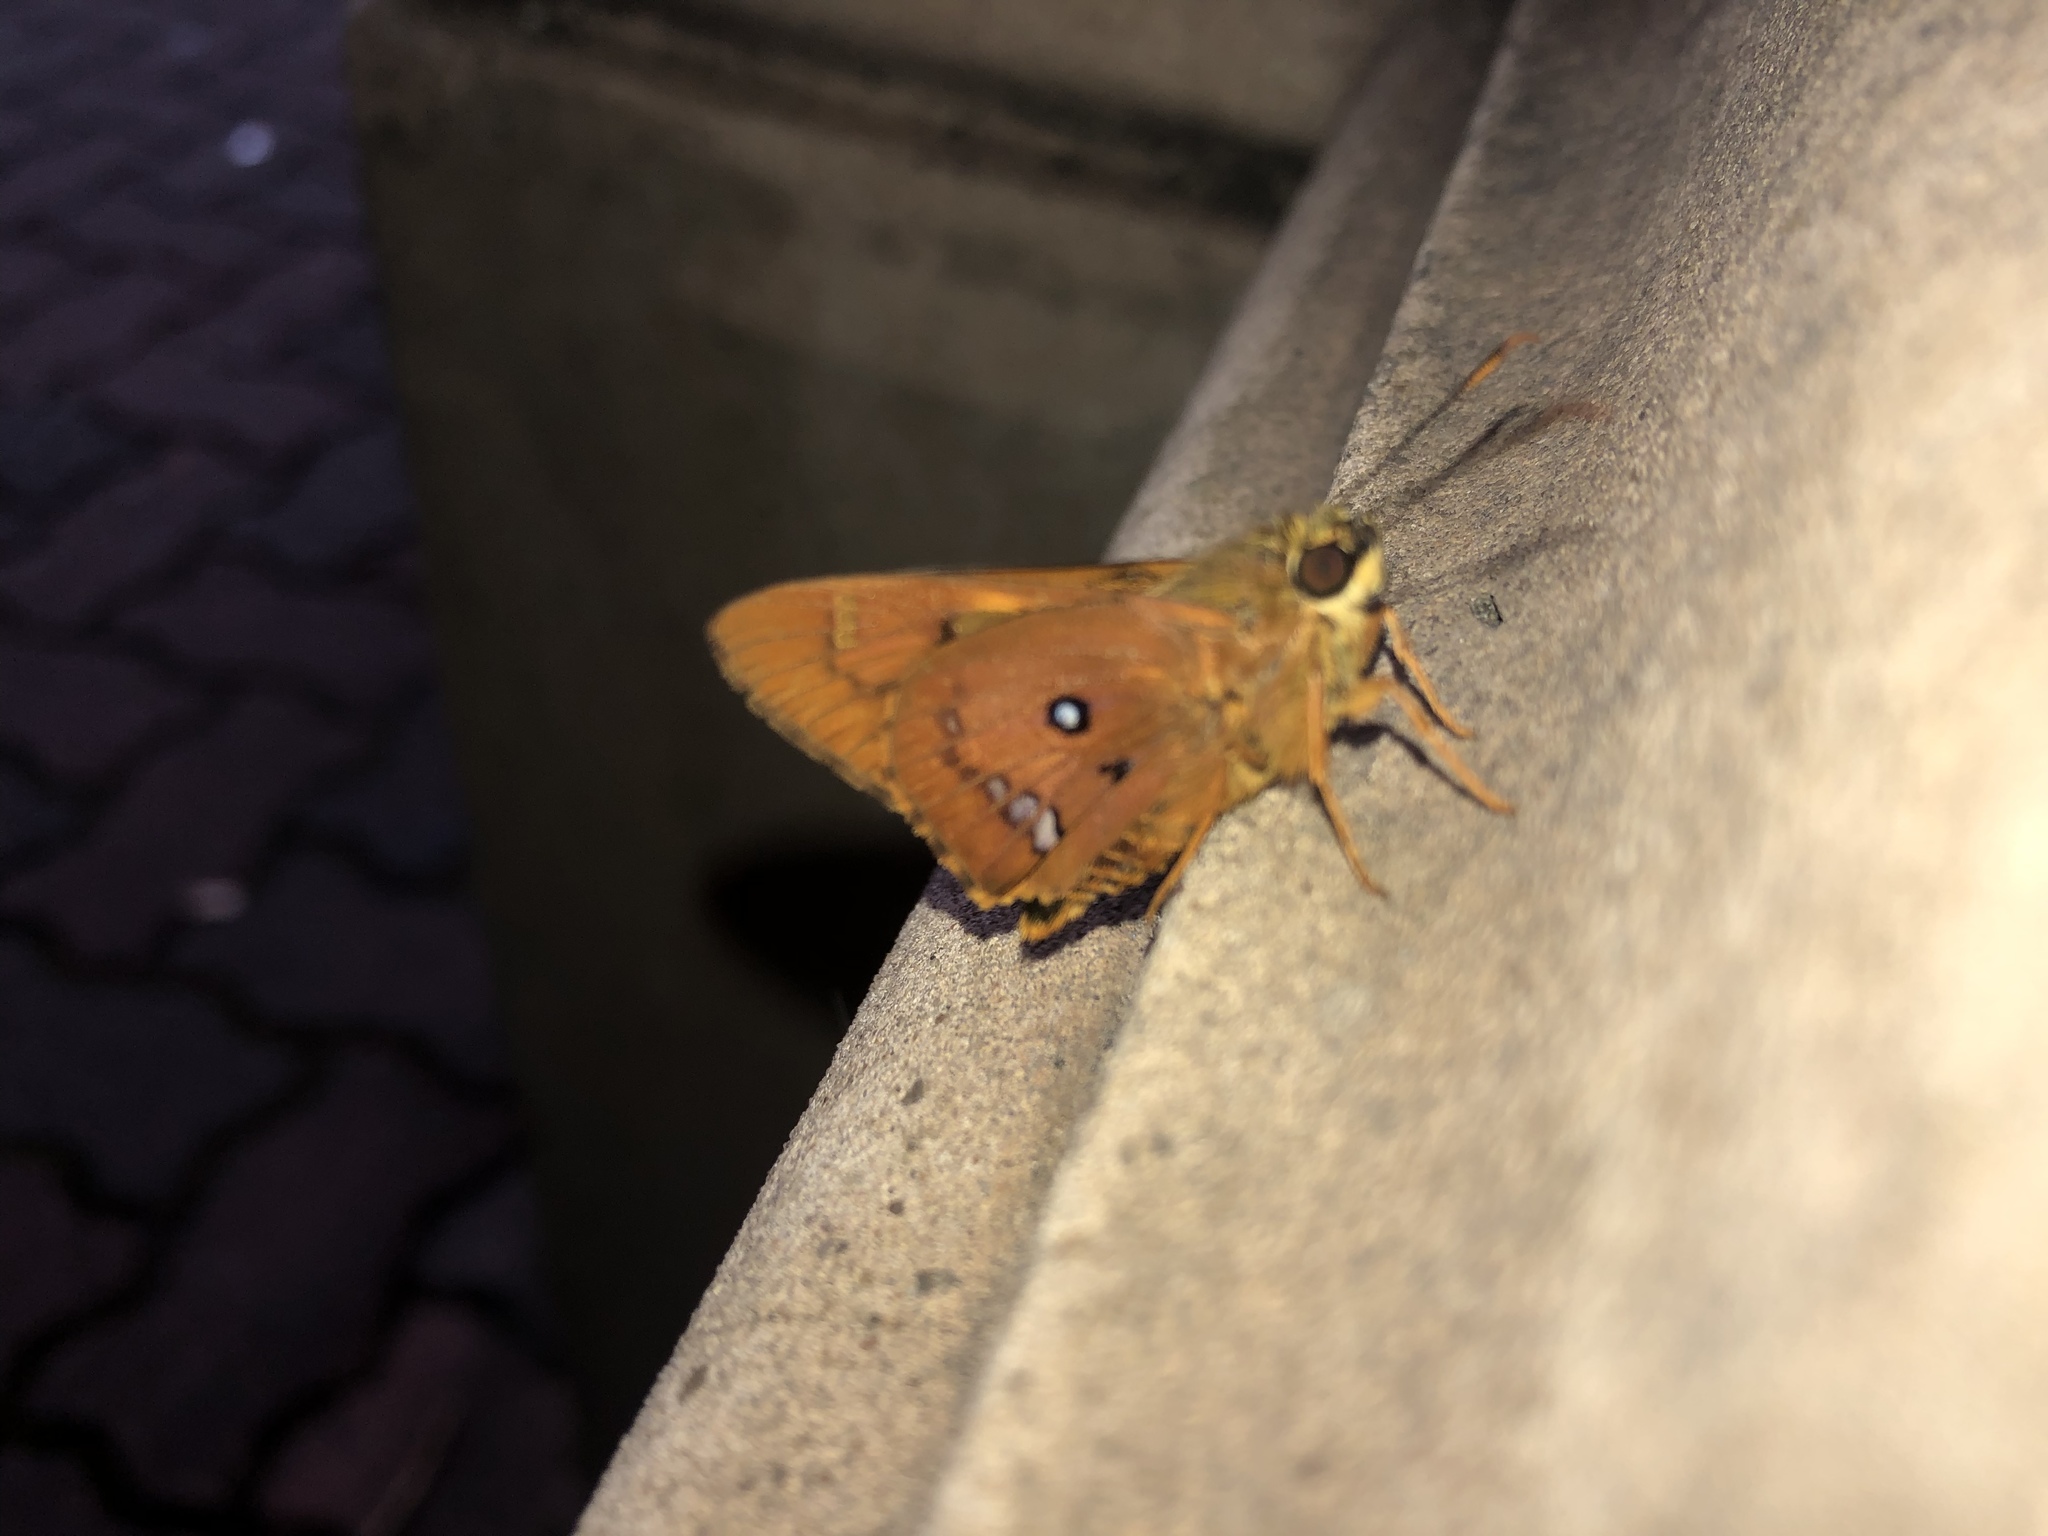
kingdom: Animalia
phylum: Arthropoda
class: Insecta
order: Lepidoptera
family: Hesperiidae
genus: Trapezites
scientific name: Trapezites symmomus
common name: Splendid ochre
